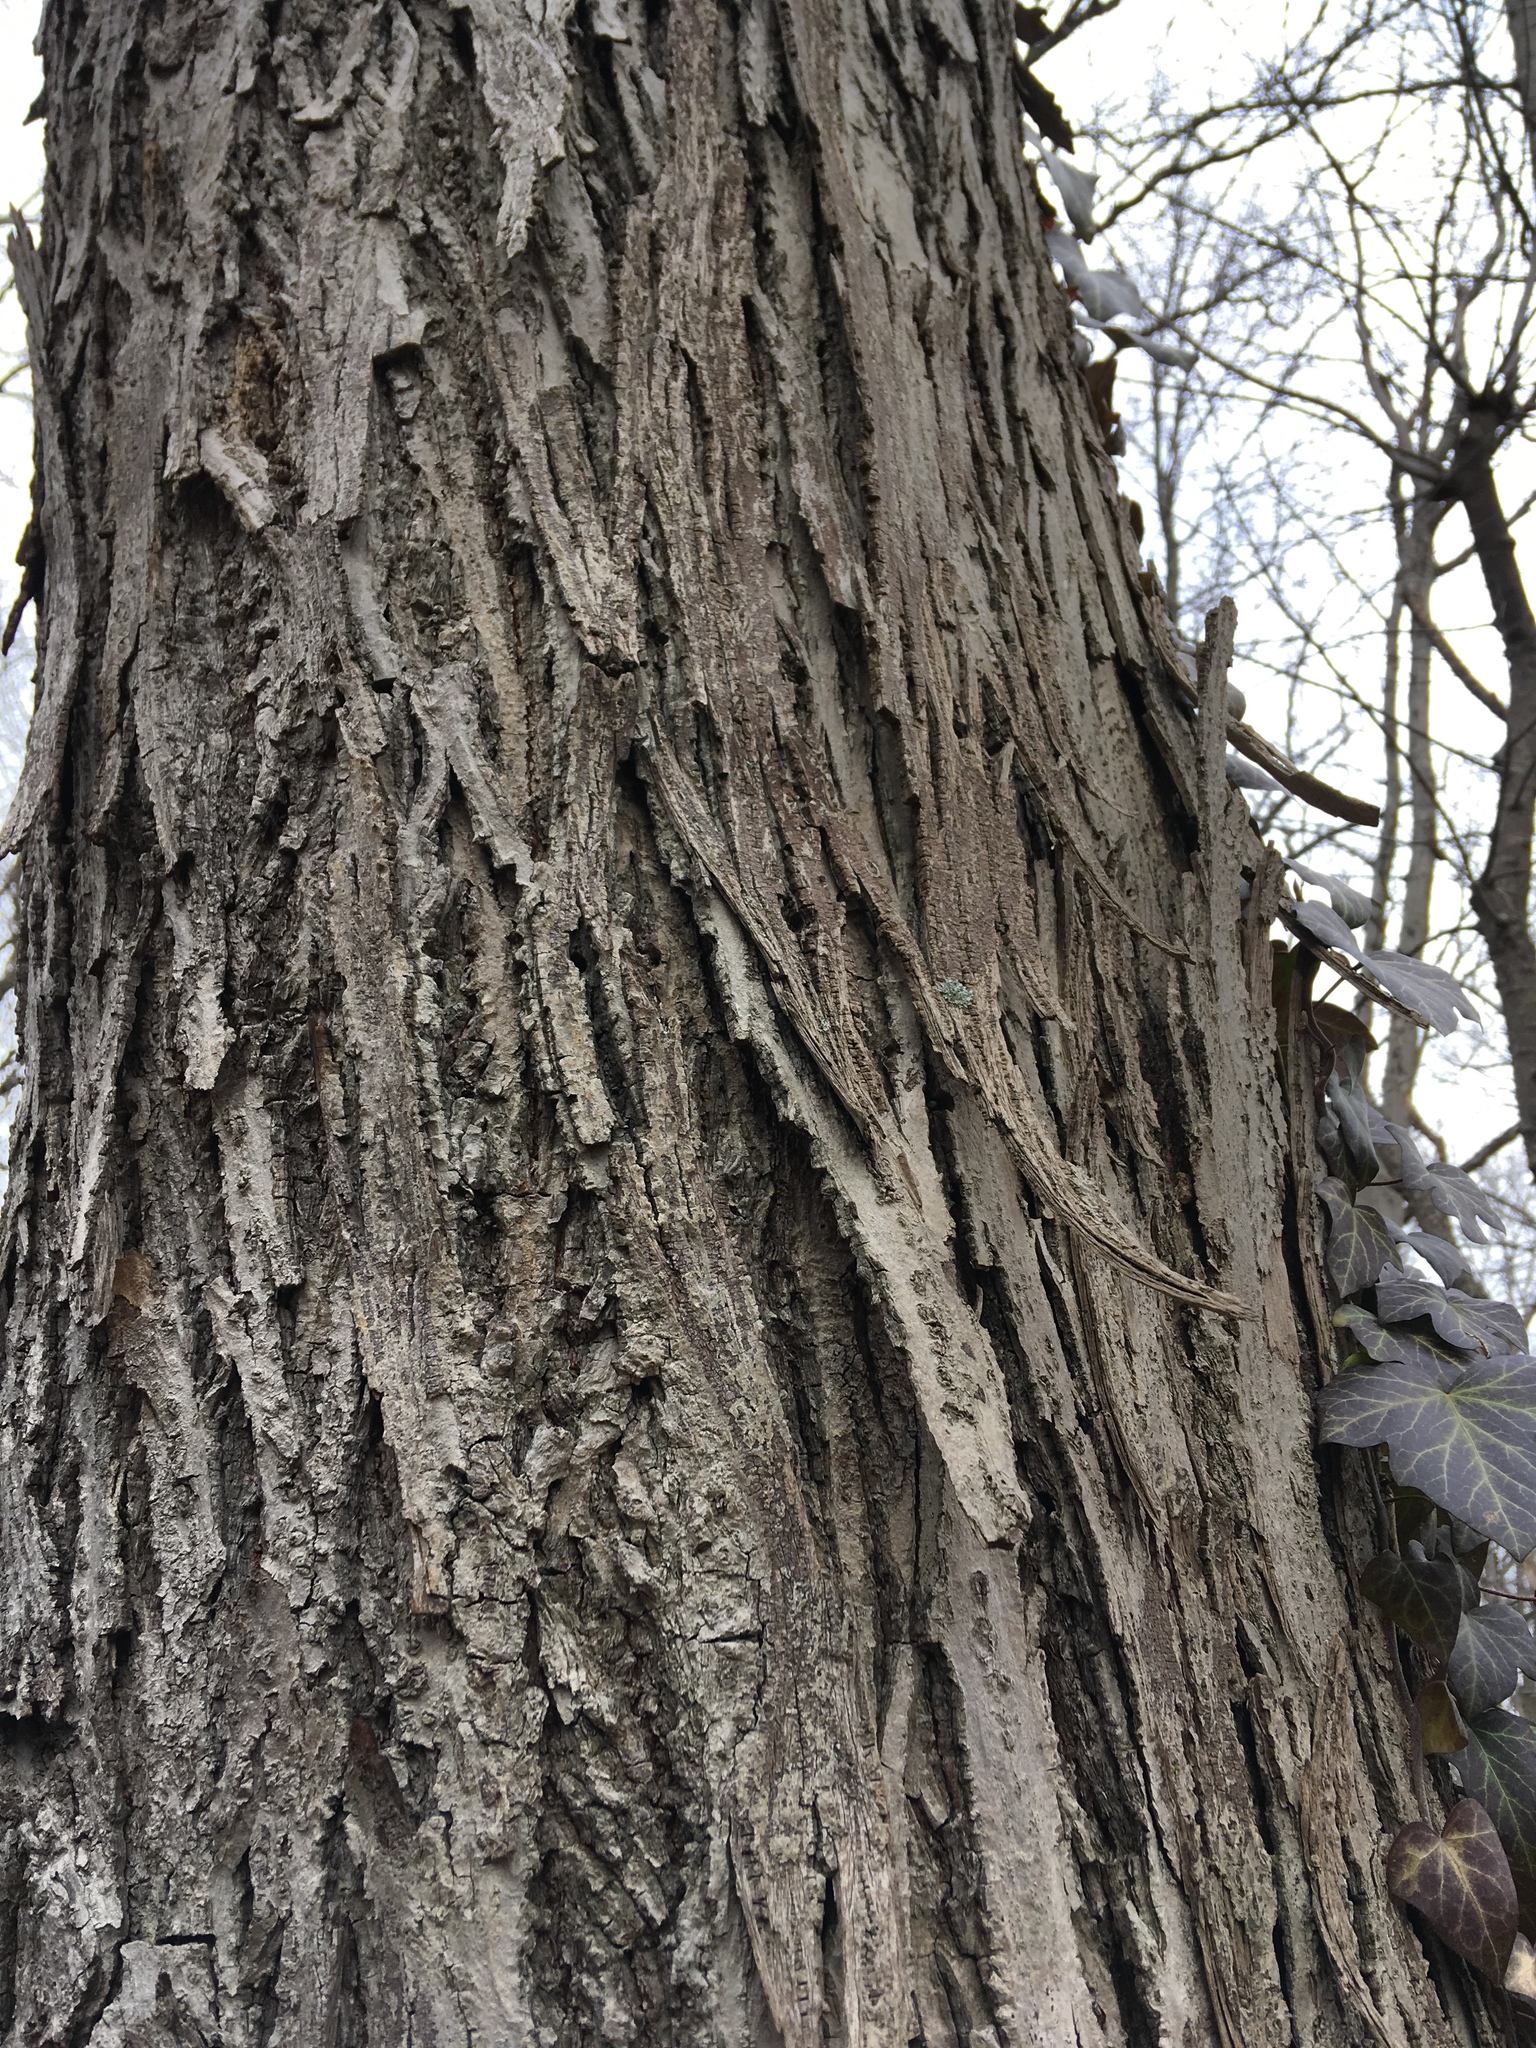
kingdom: Plantae
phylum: Tracheophyta
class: Magnoliopsida
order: Fagales
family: Juglandaceae
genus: Carya
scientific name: Carya ovata
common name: Shagbark hickory
